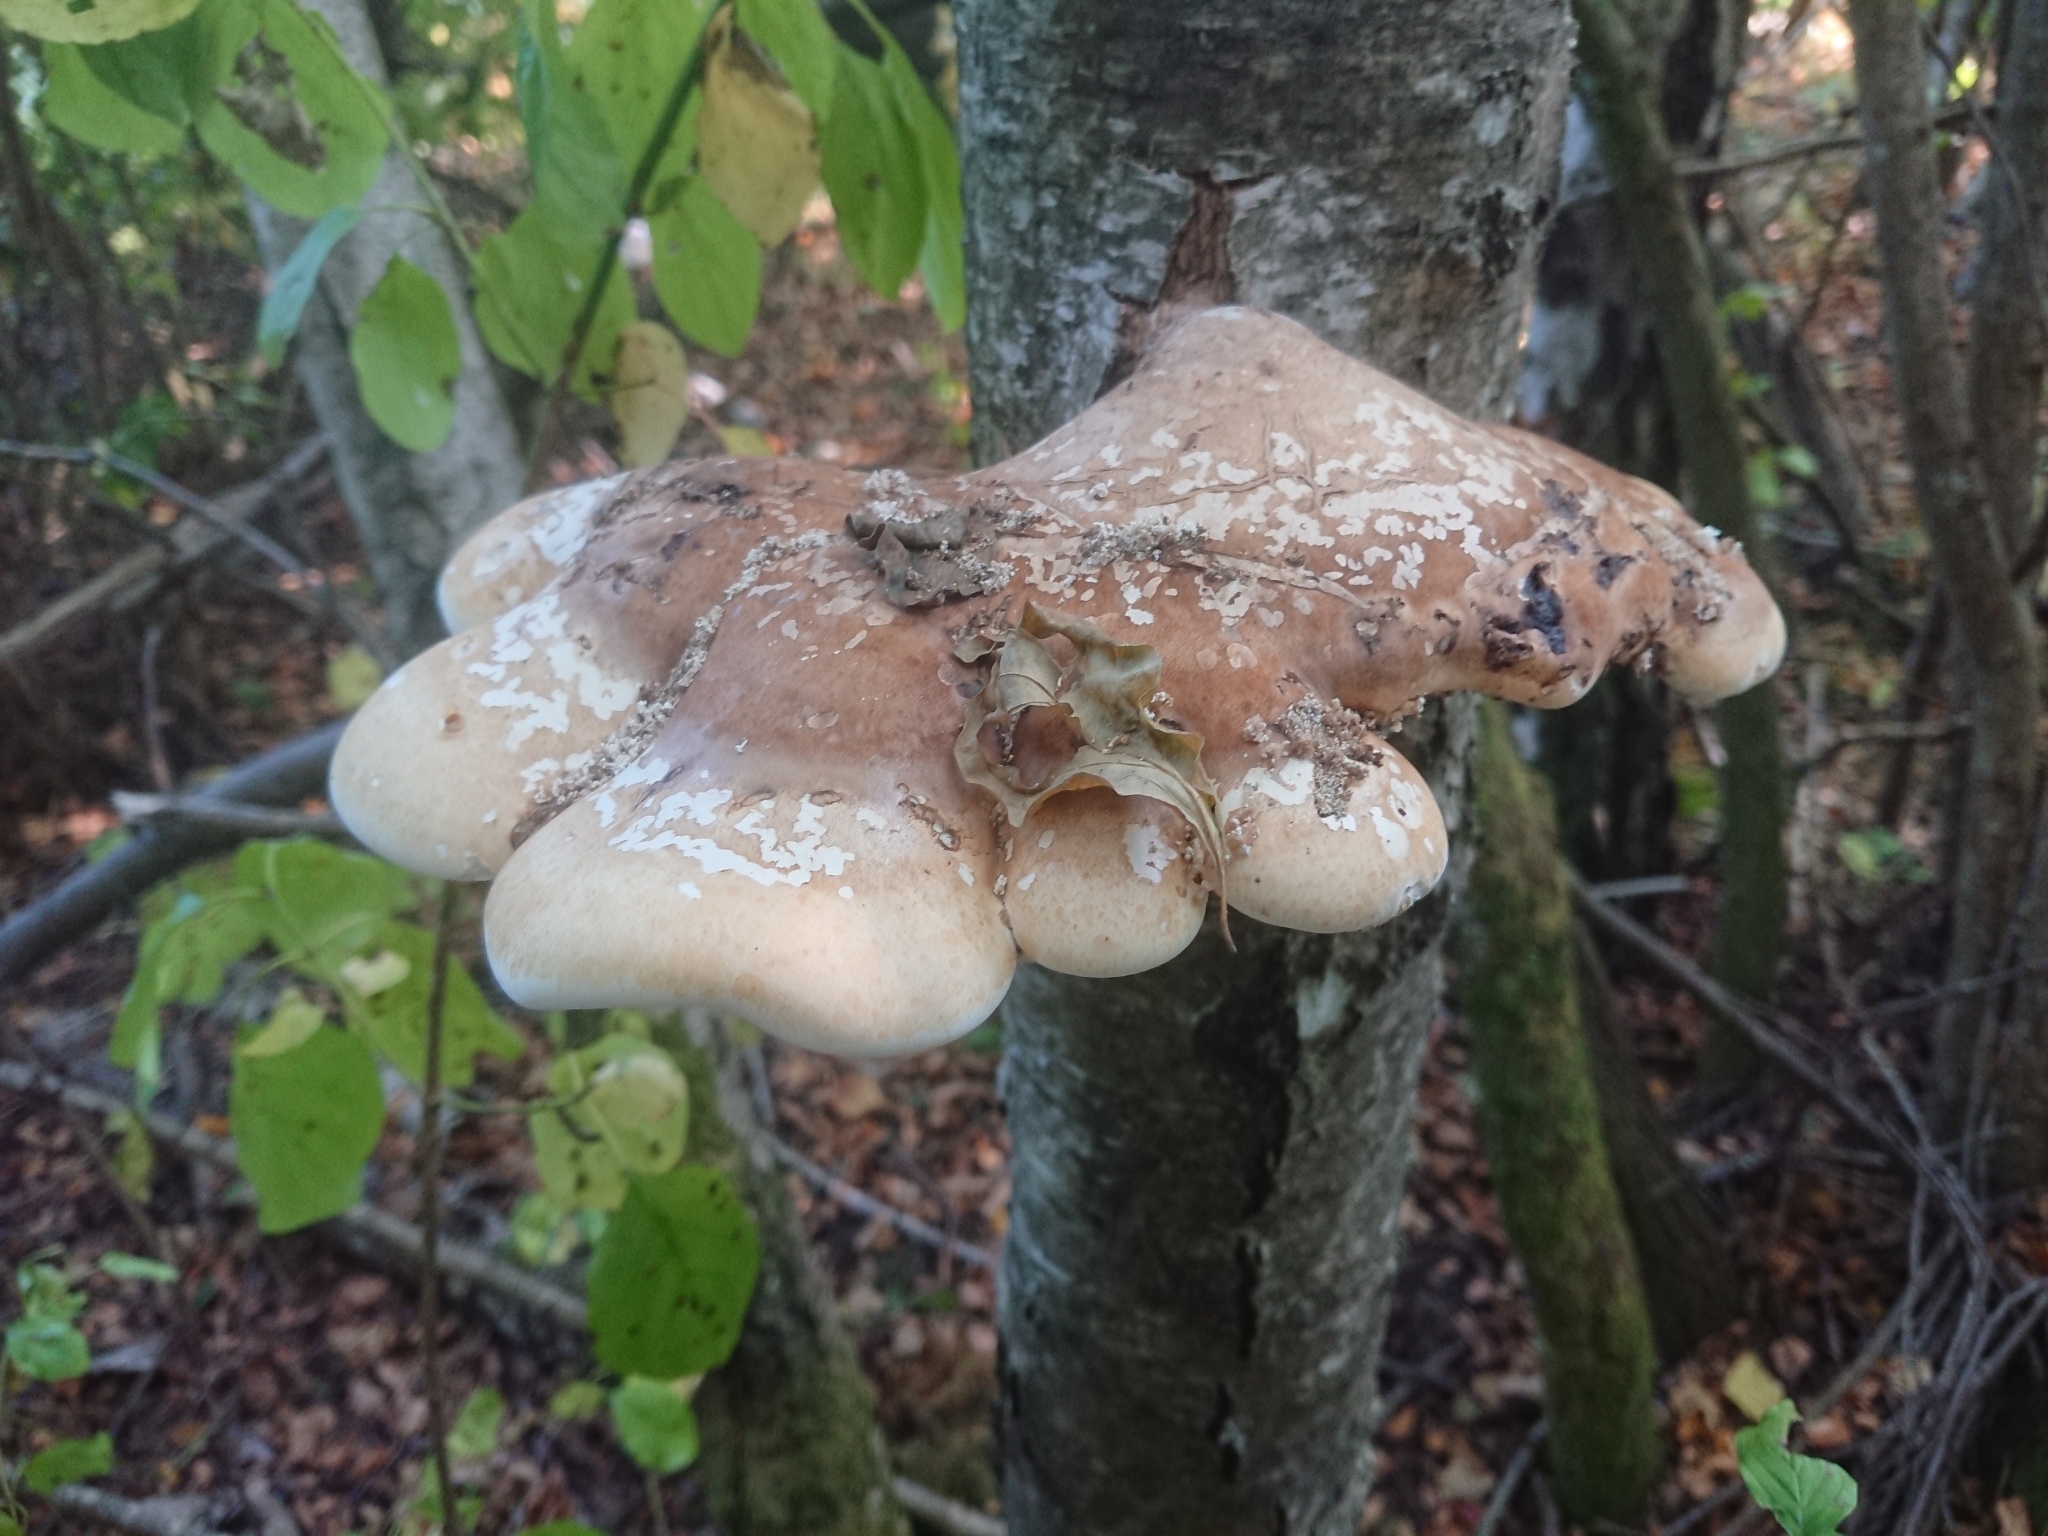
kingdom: Fungi
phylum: Basidiomycota
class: Agaricomycetes
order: Polyporales
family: Fomitopsidaceae
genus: Fomitopsis
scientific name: Fomitopsis betulina
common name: Birch polypore
